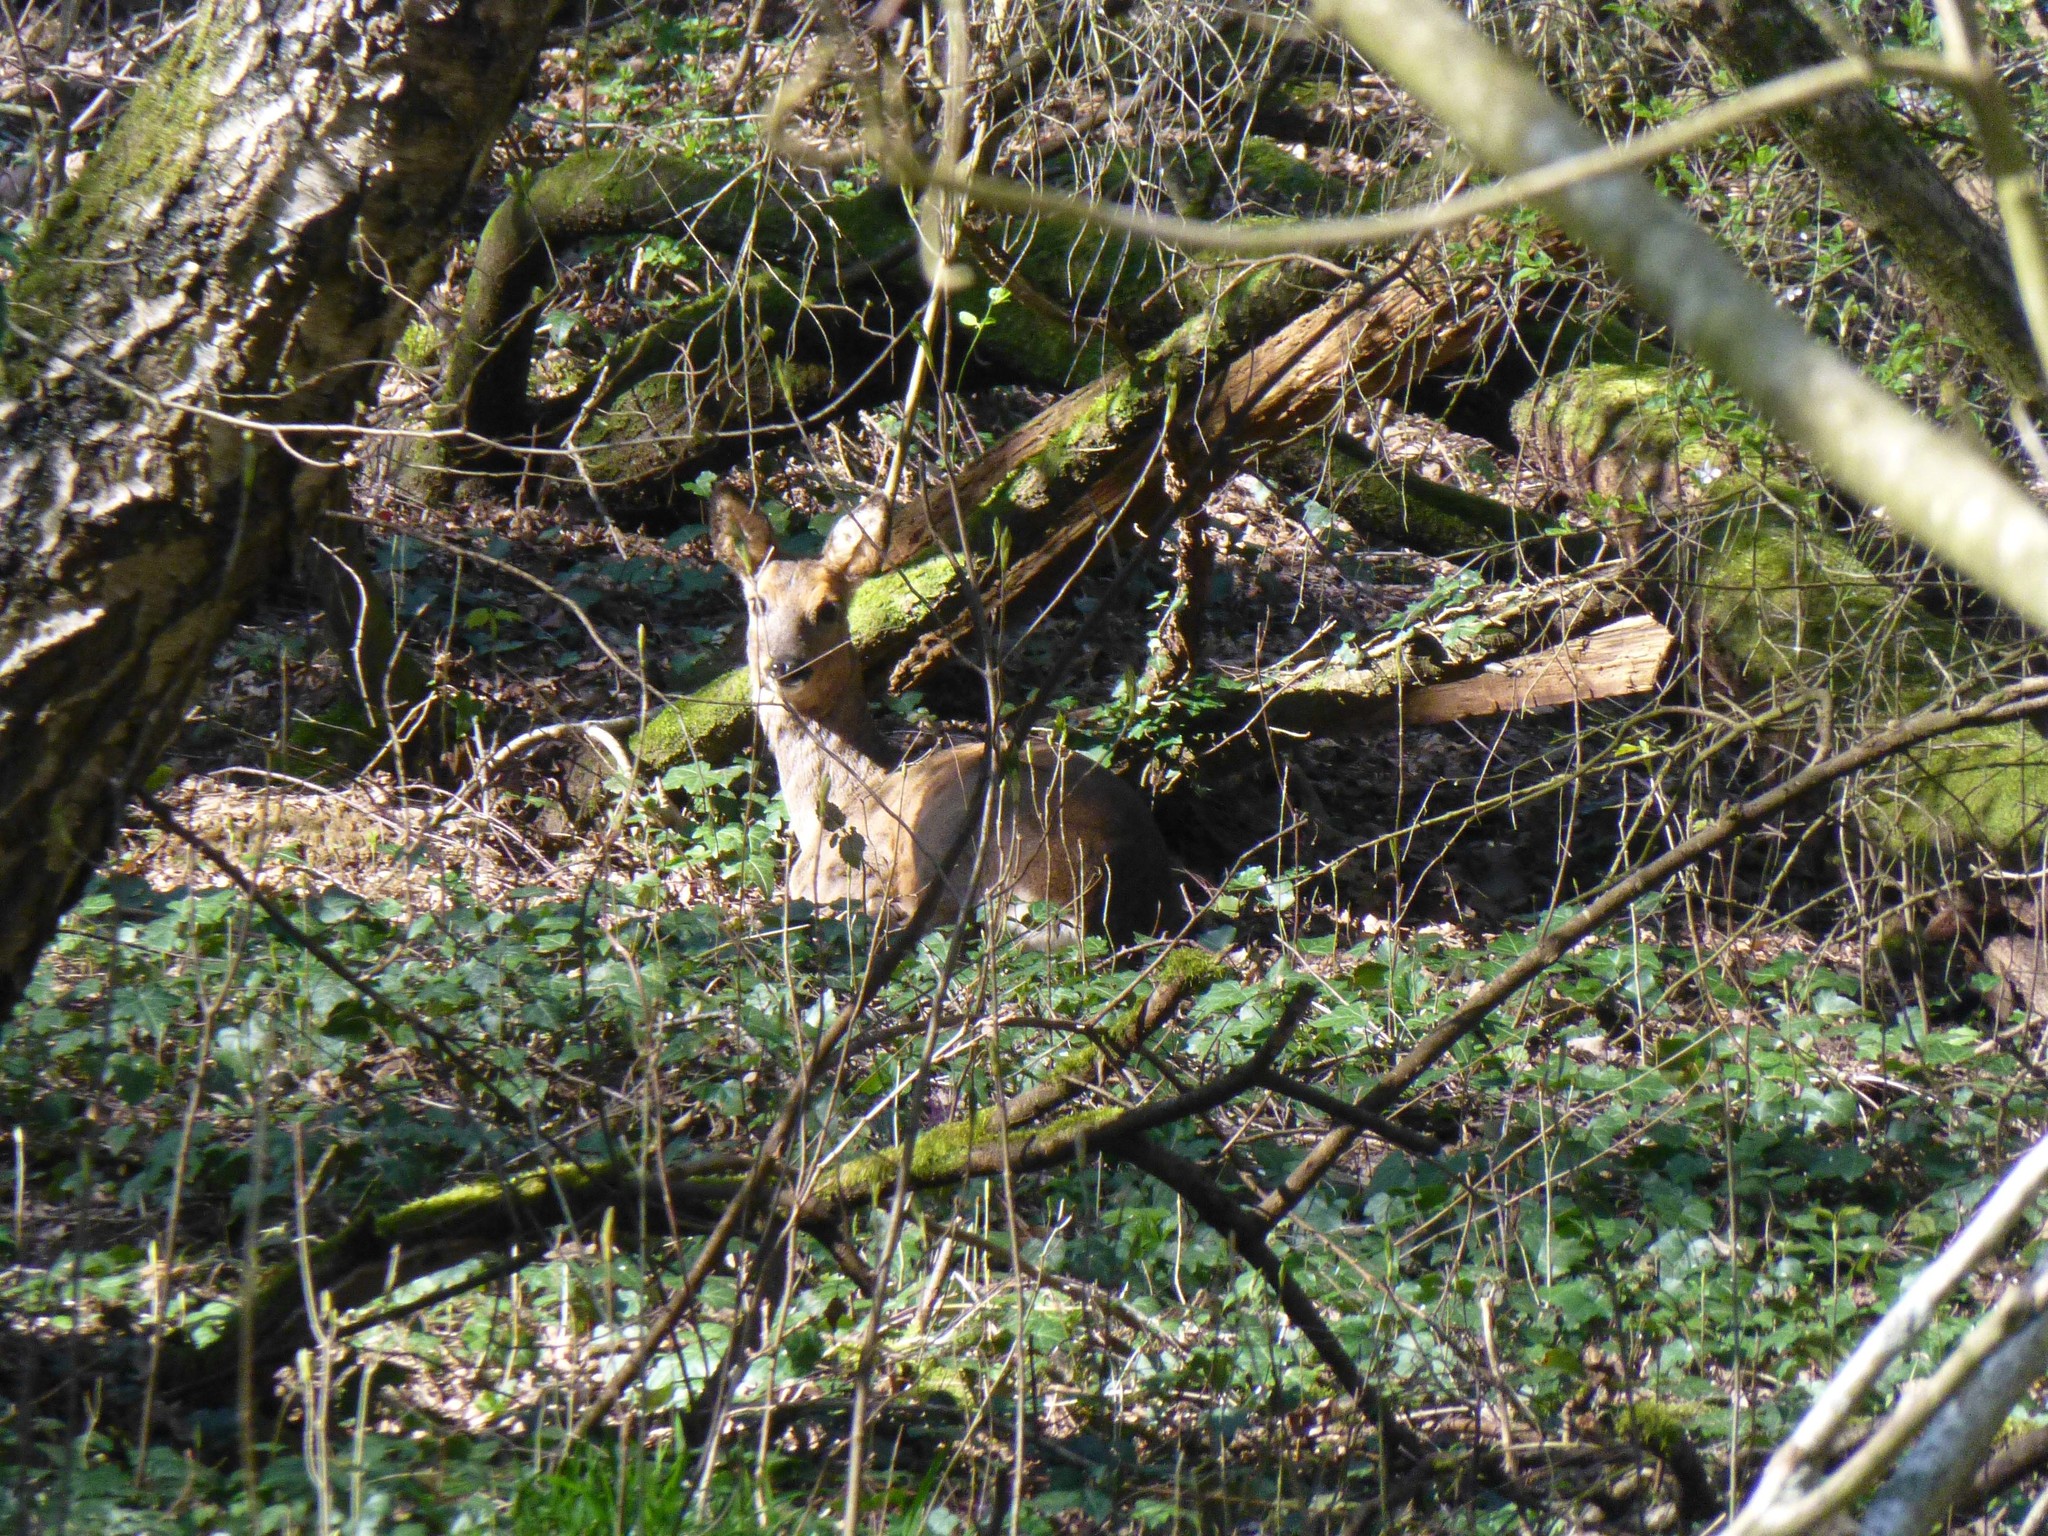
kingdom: Animalia
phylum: Chordata
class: Mammalia
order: Artiodactyla
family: Cervidae
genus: Capreolus
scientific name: Capreolus capreolus
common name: Western roe deer
